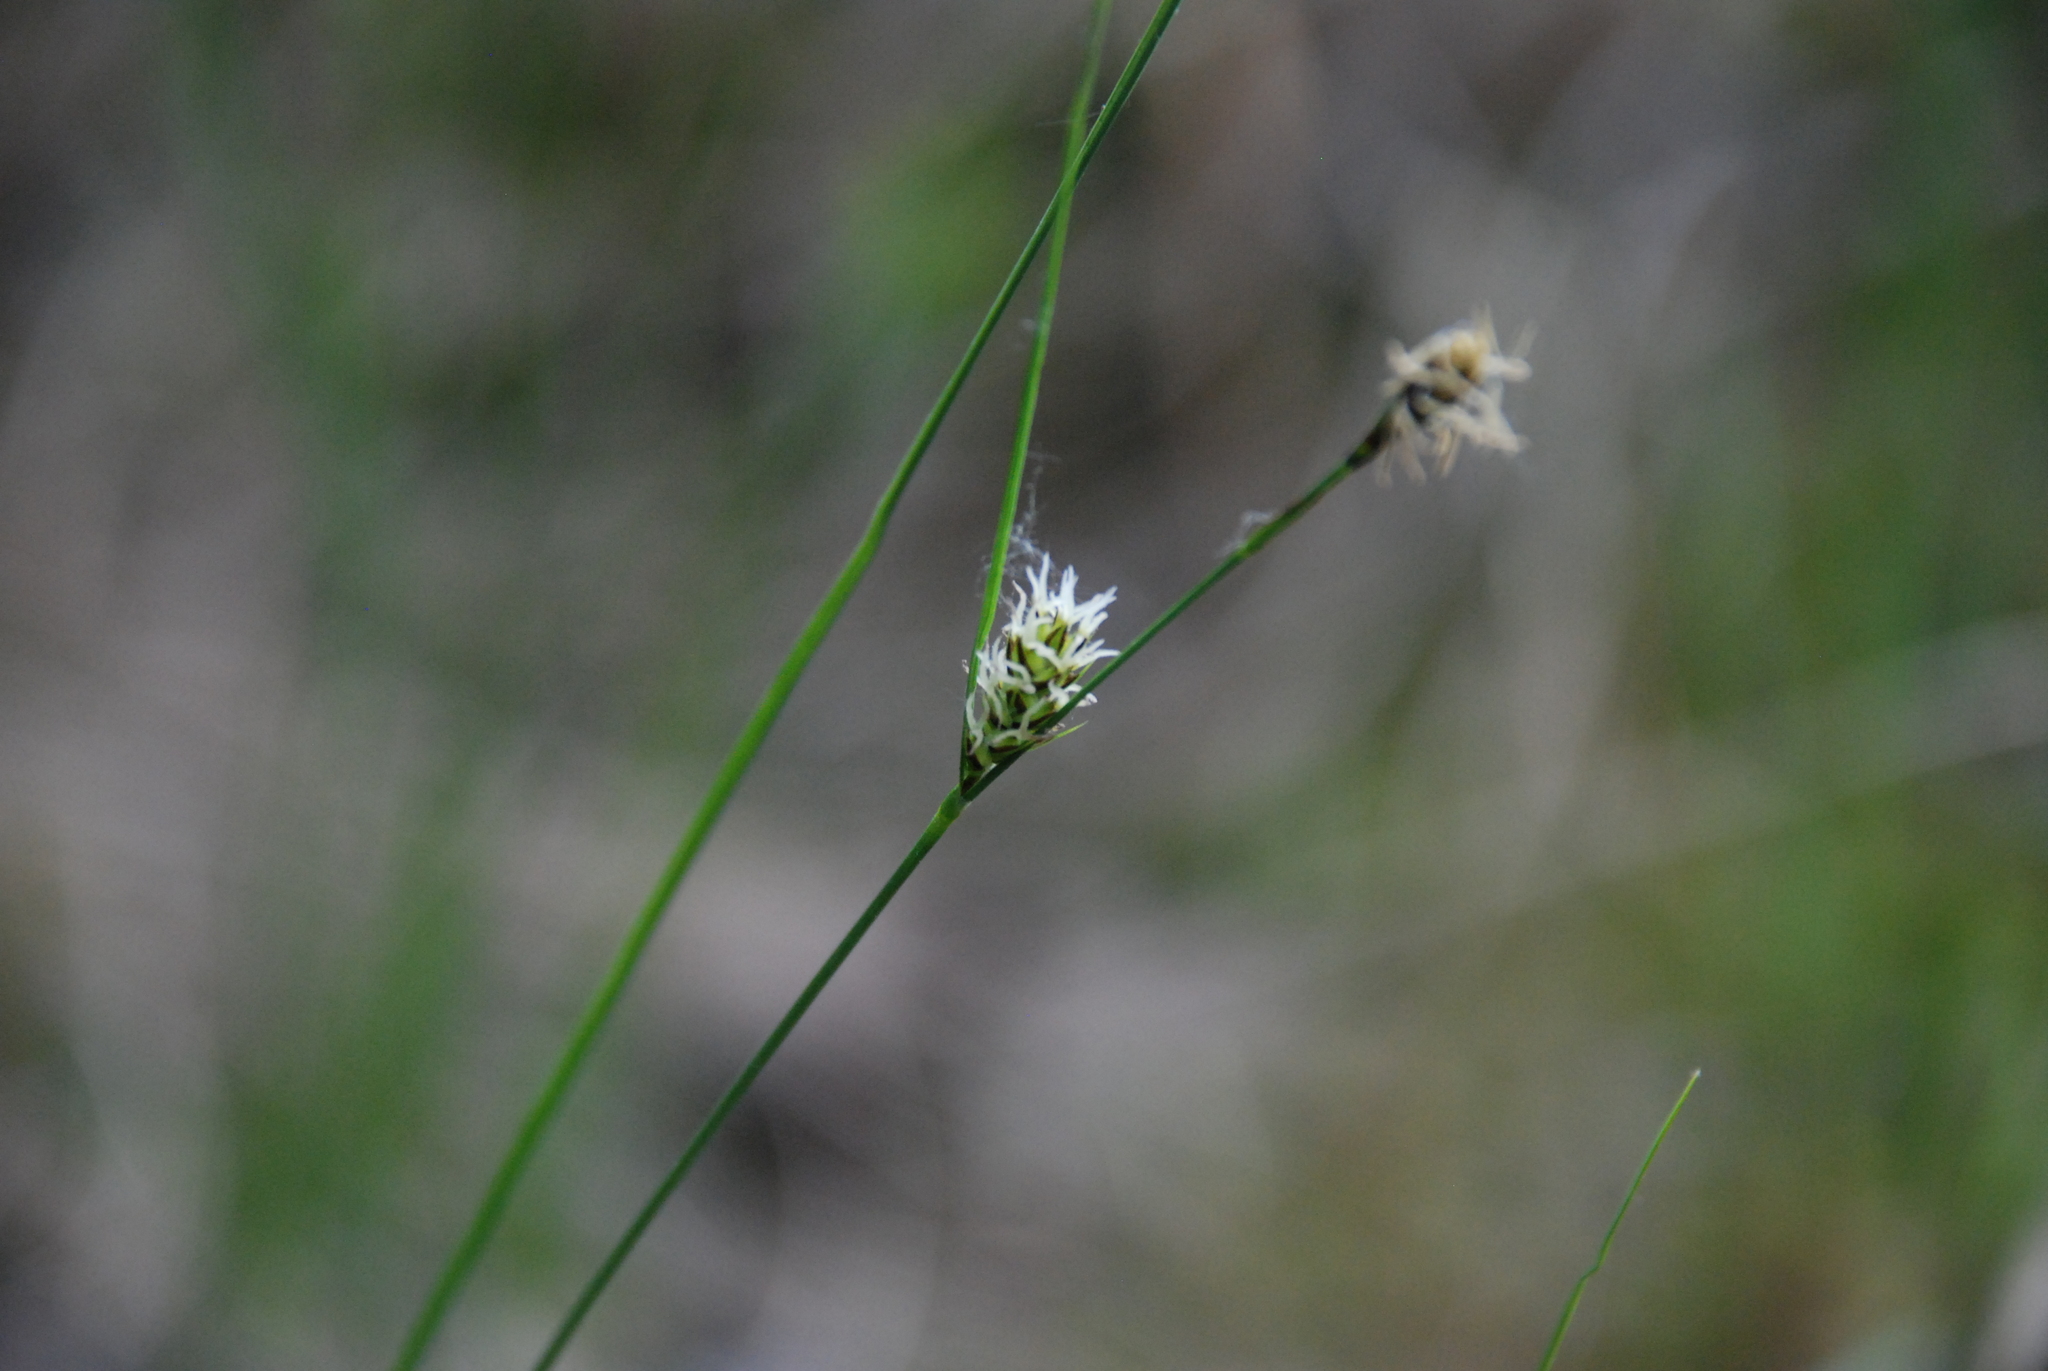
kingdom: Plantae
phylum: Tracheophyta
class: Liliopsida
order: Poales
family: Cyperaceae
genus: Carex
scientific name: Carex lasiocarpa
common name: Slender sedge
